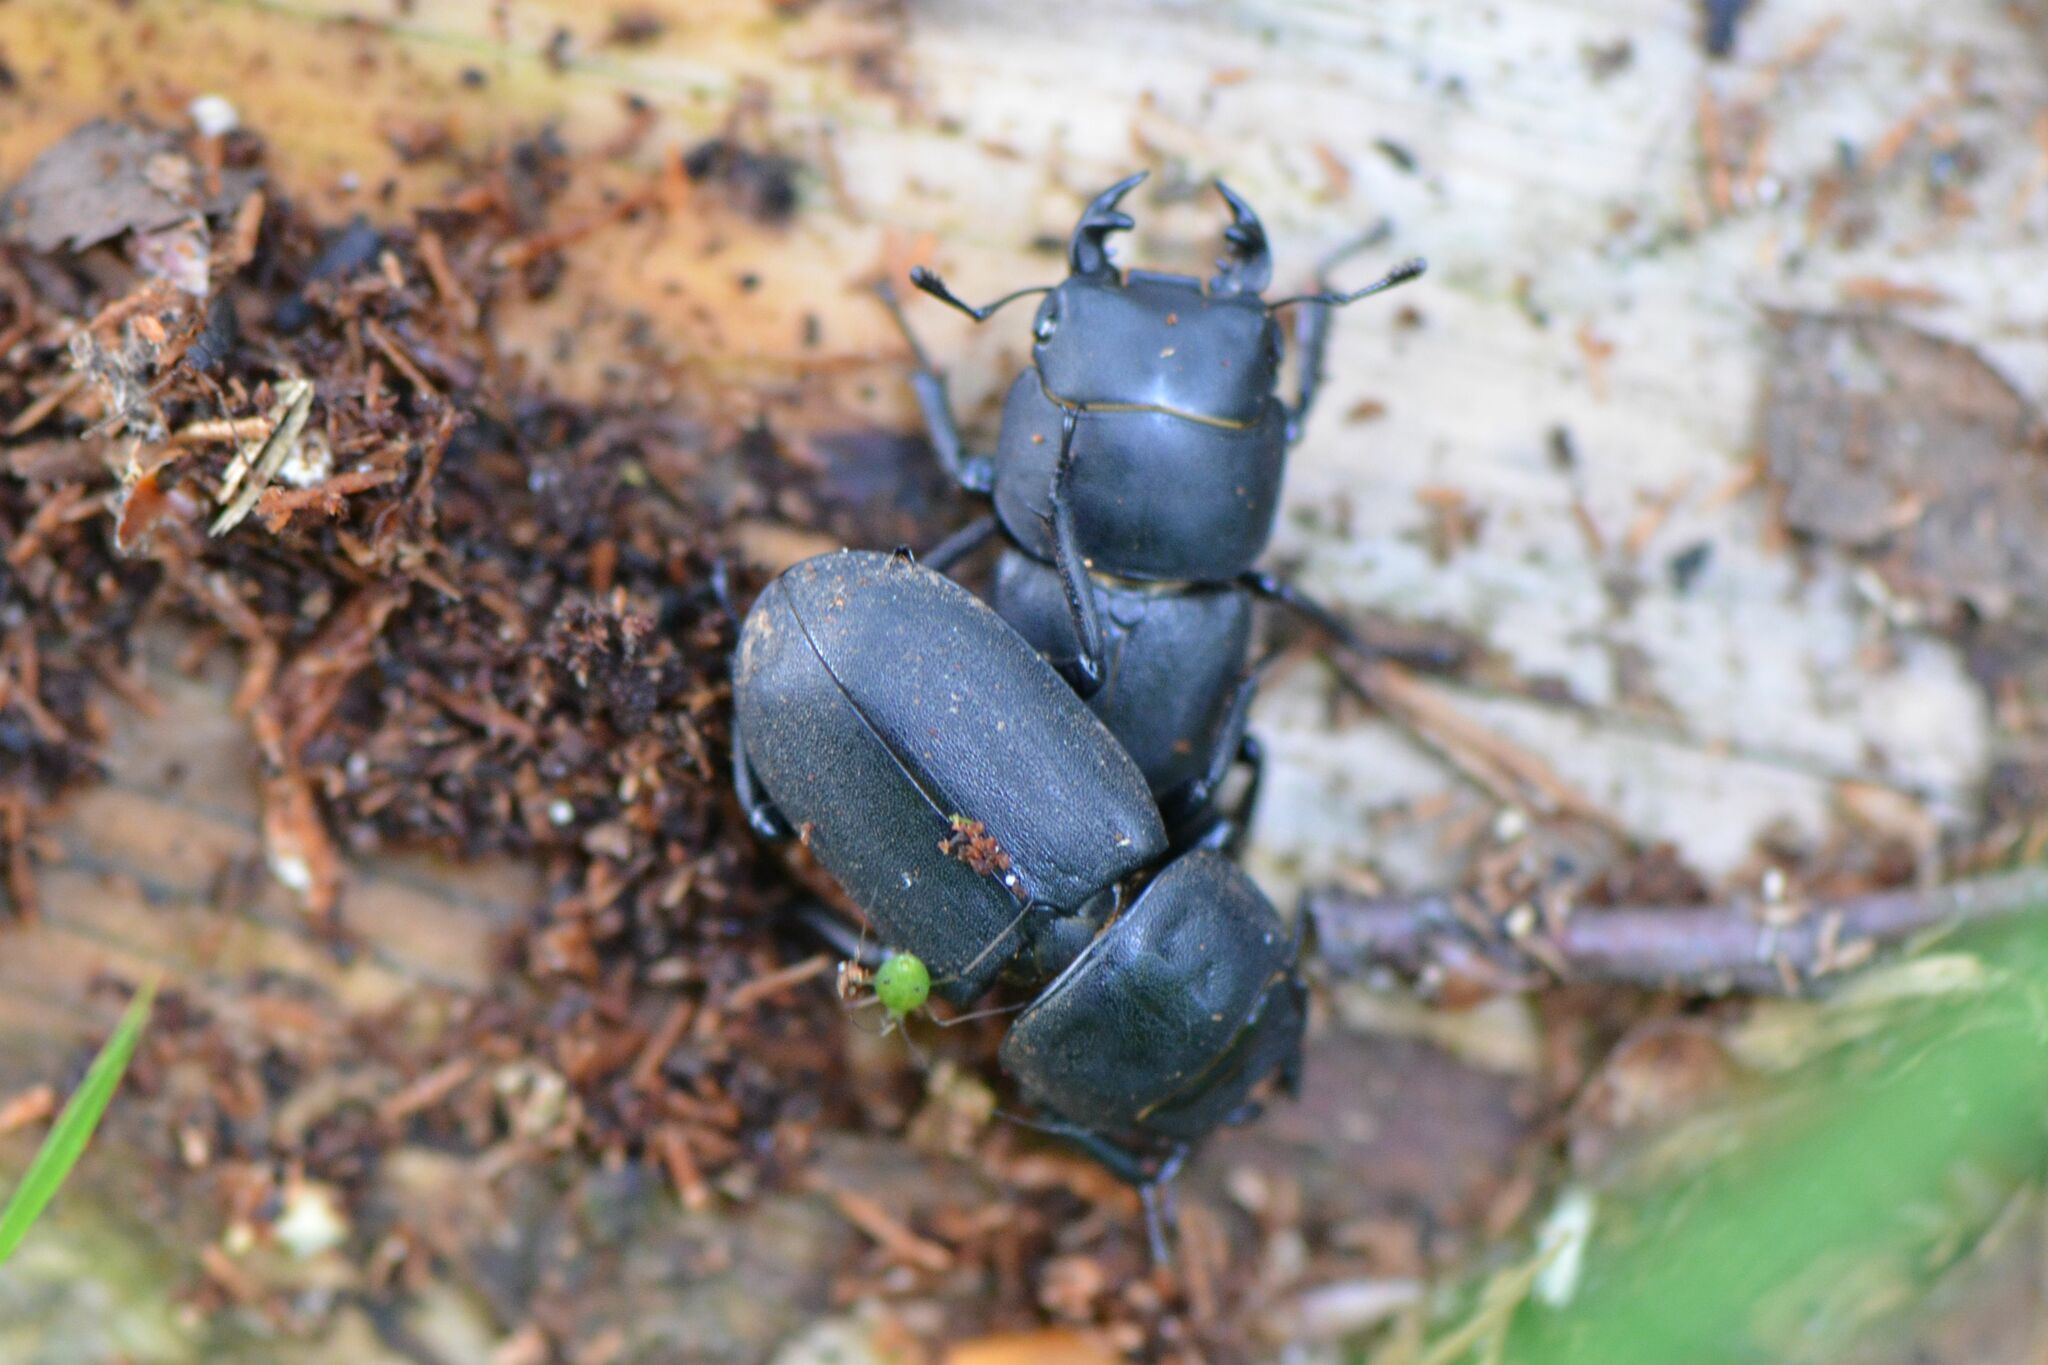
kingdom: Animalia
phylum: Arthropoda
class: Insecta
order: Coleoptera
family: Lucanidae
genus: Dorcus
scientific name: Dorcus parallelipipedus
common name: Lesser stag beetle
